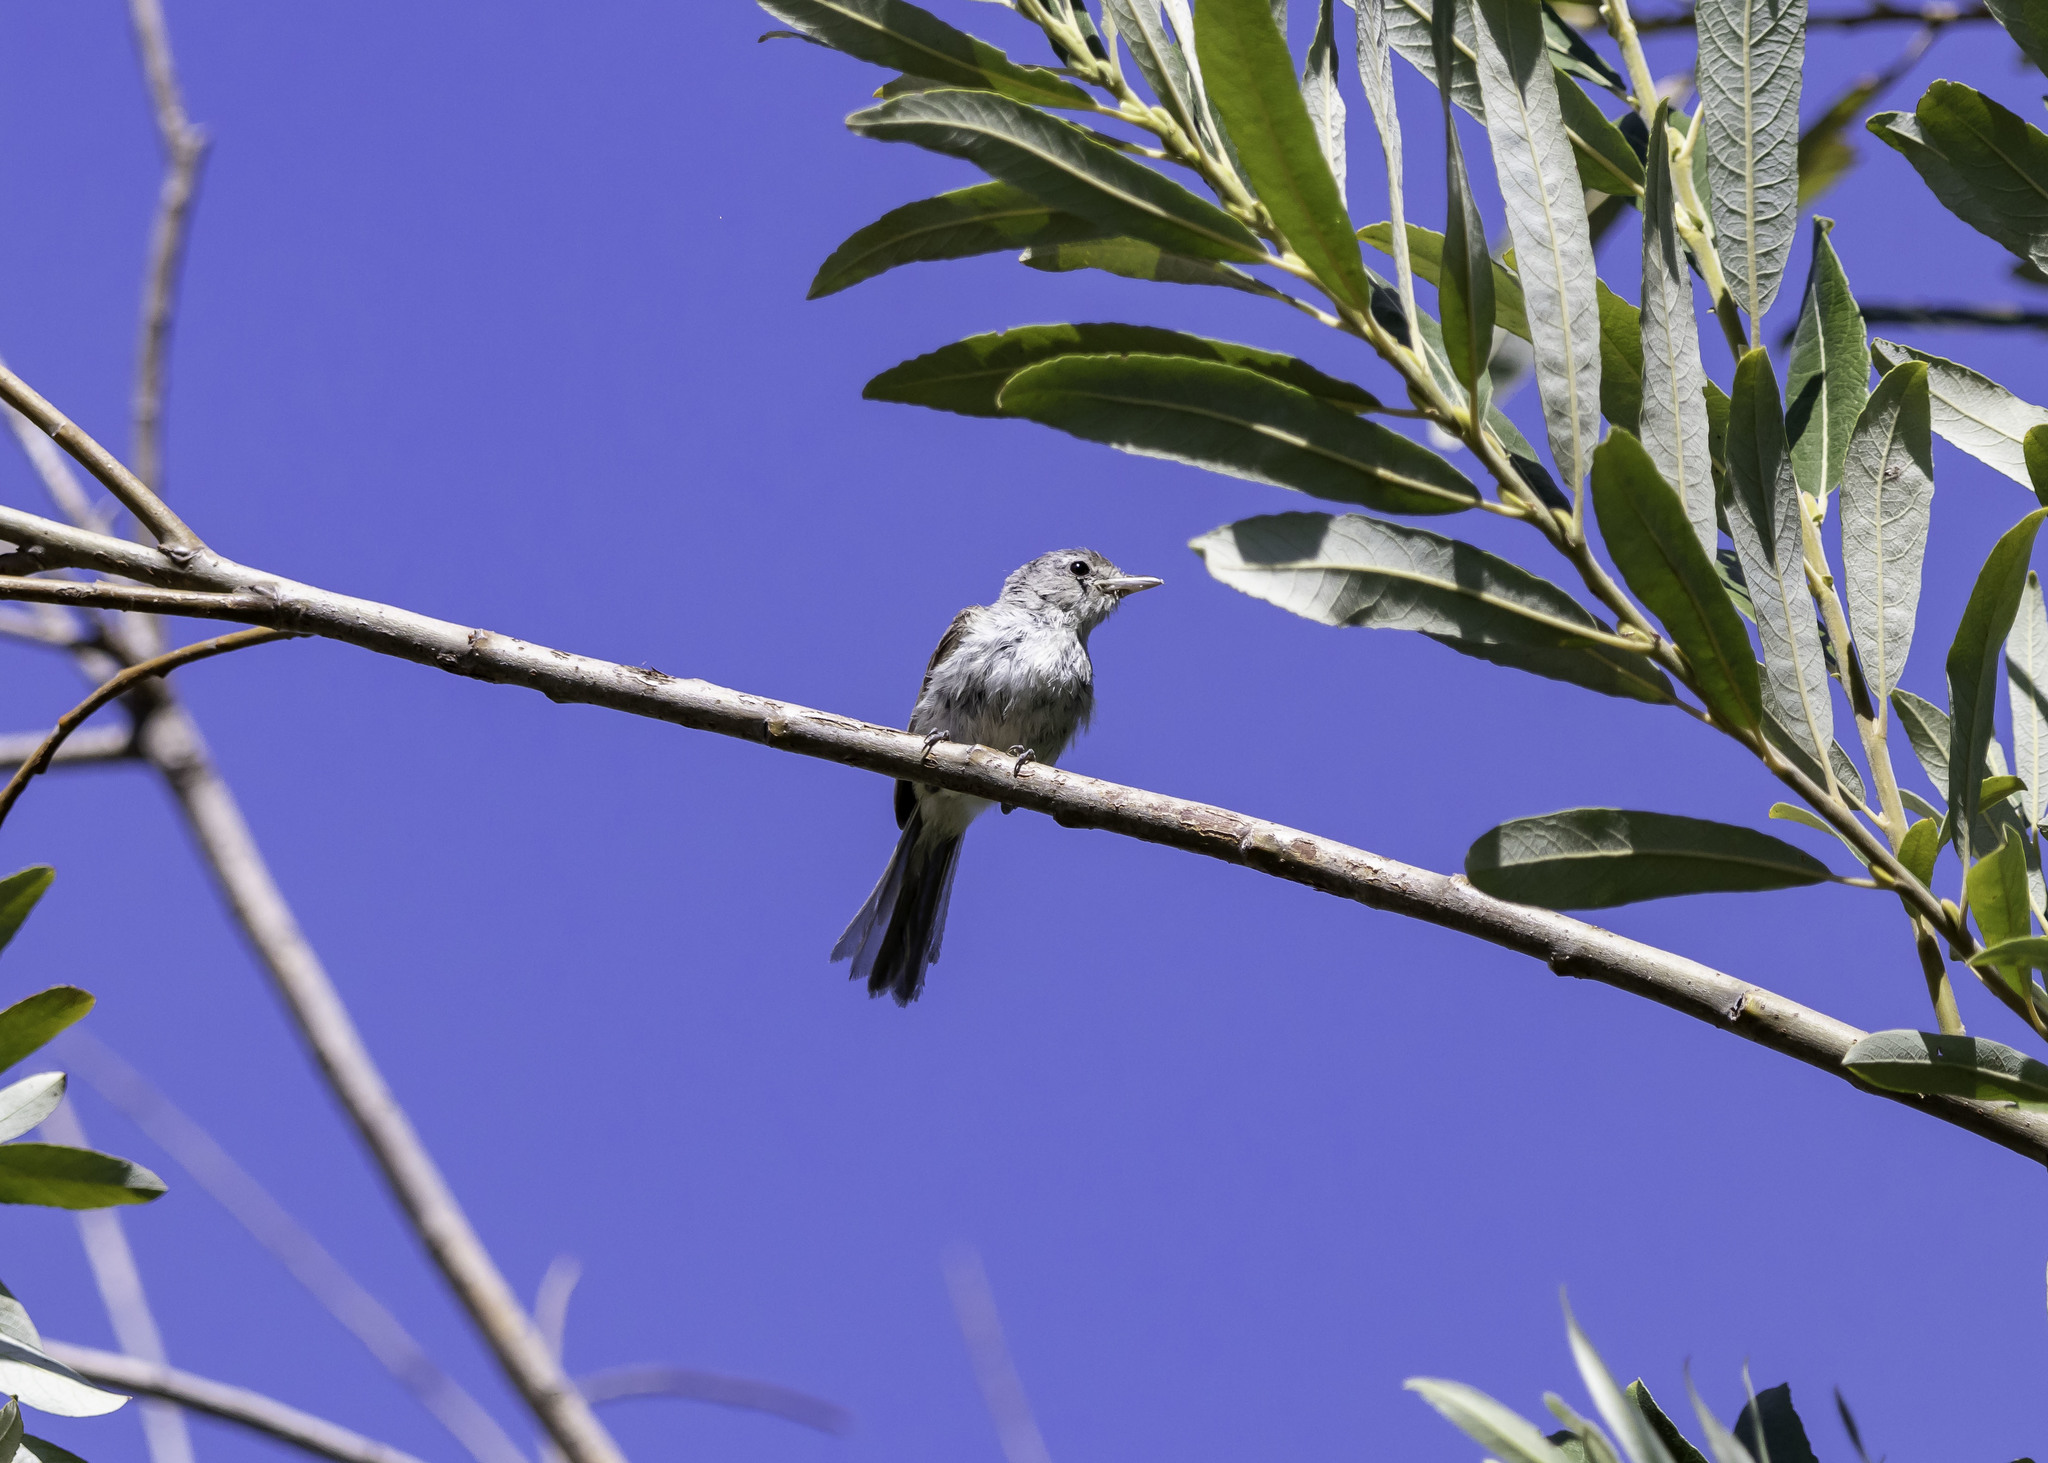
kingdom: Animalia
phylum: Chordata
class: Aves
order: Passeriformes
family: Vireonidae
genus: Vireo
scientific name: Vireo bellii
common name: Bell's vireo
